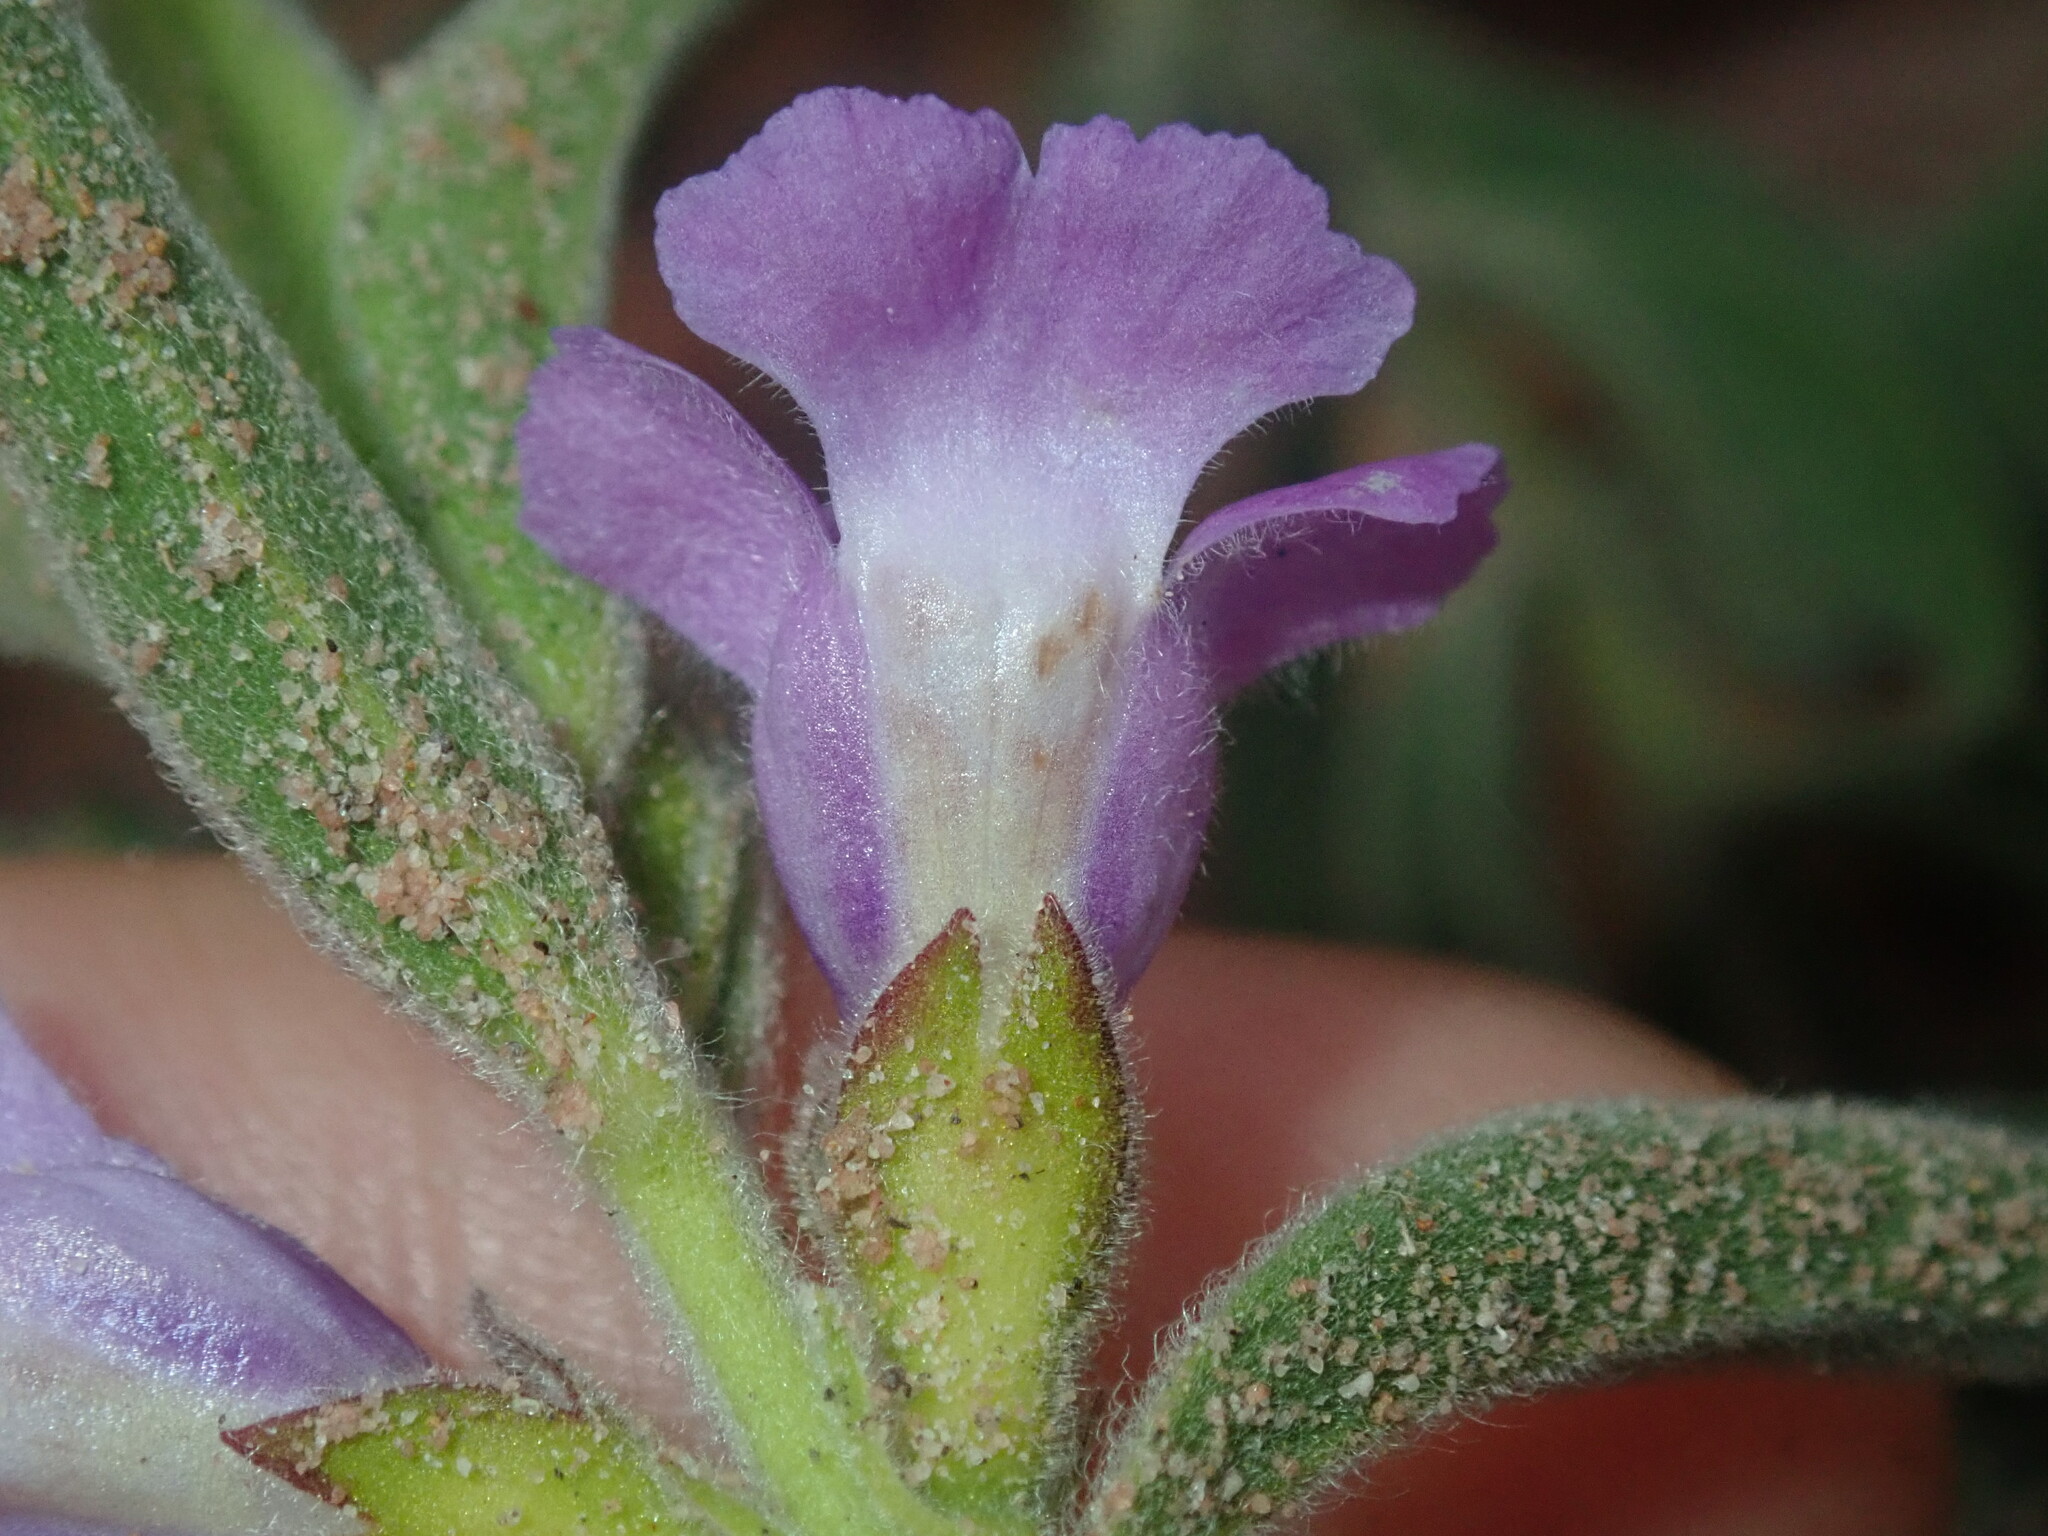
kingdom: Plantae
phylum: Tracheophyta
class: Magnoliopsida
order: Lamiales
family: Lamiaceae
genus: Hemigenia
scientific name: Hemigenia incana
